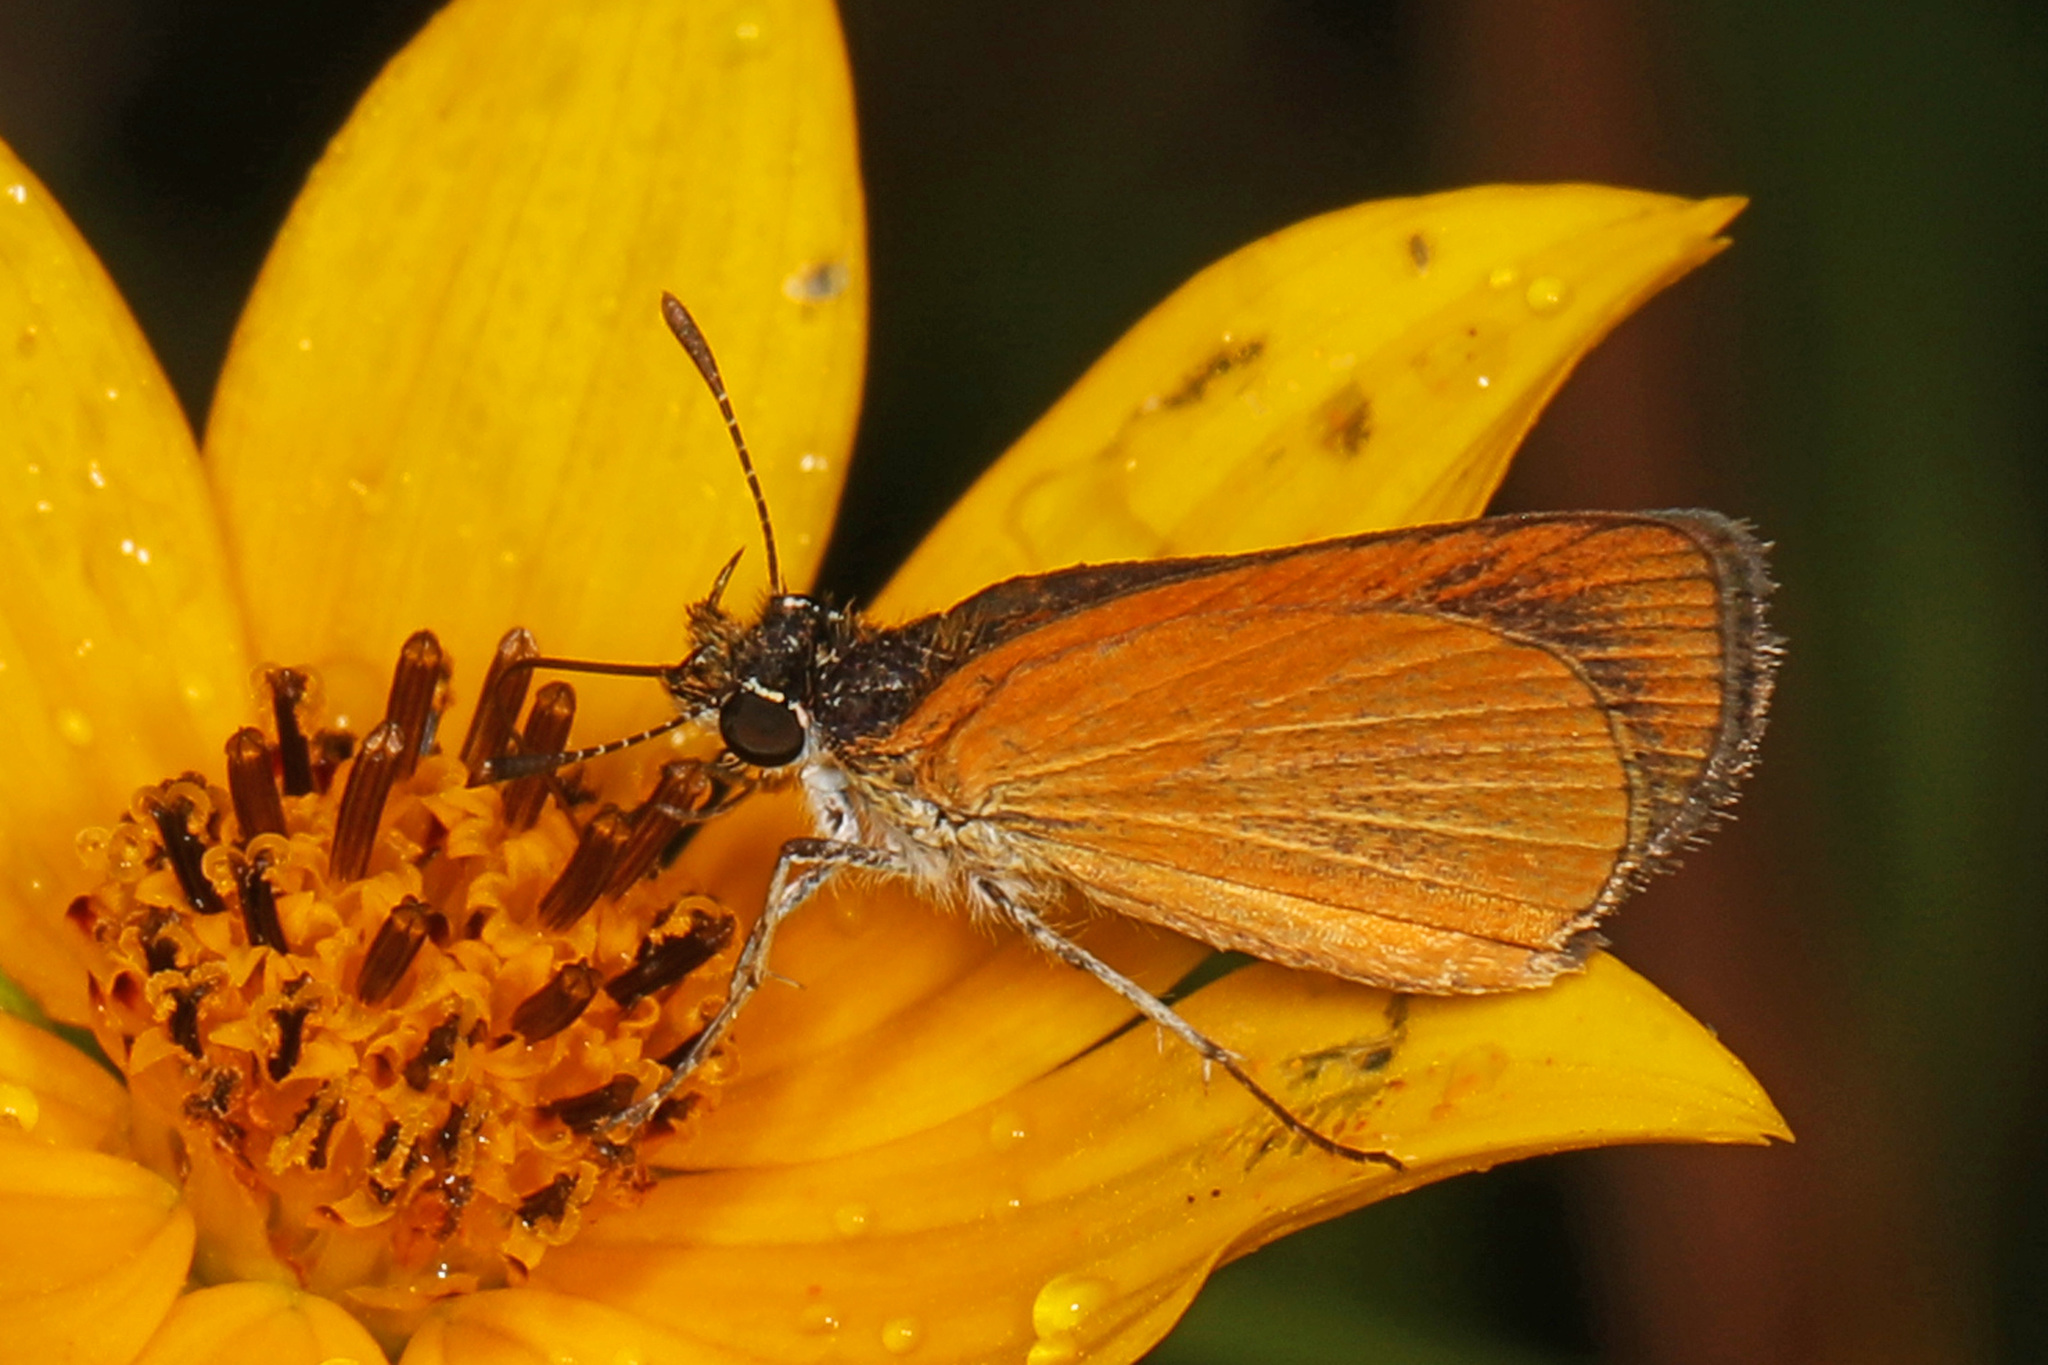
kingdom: Animalia
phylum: Arthropoda
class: Insecta
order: Lepidoptera
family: Hesperiidae
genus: Ancyloxypha
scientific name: Ancyloxypha numitor
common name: Least skipper
